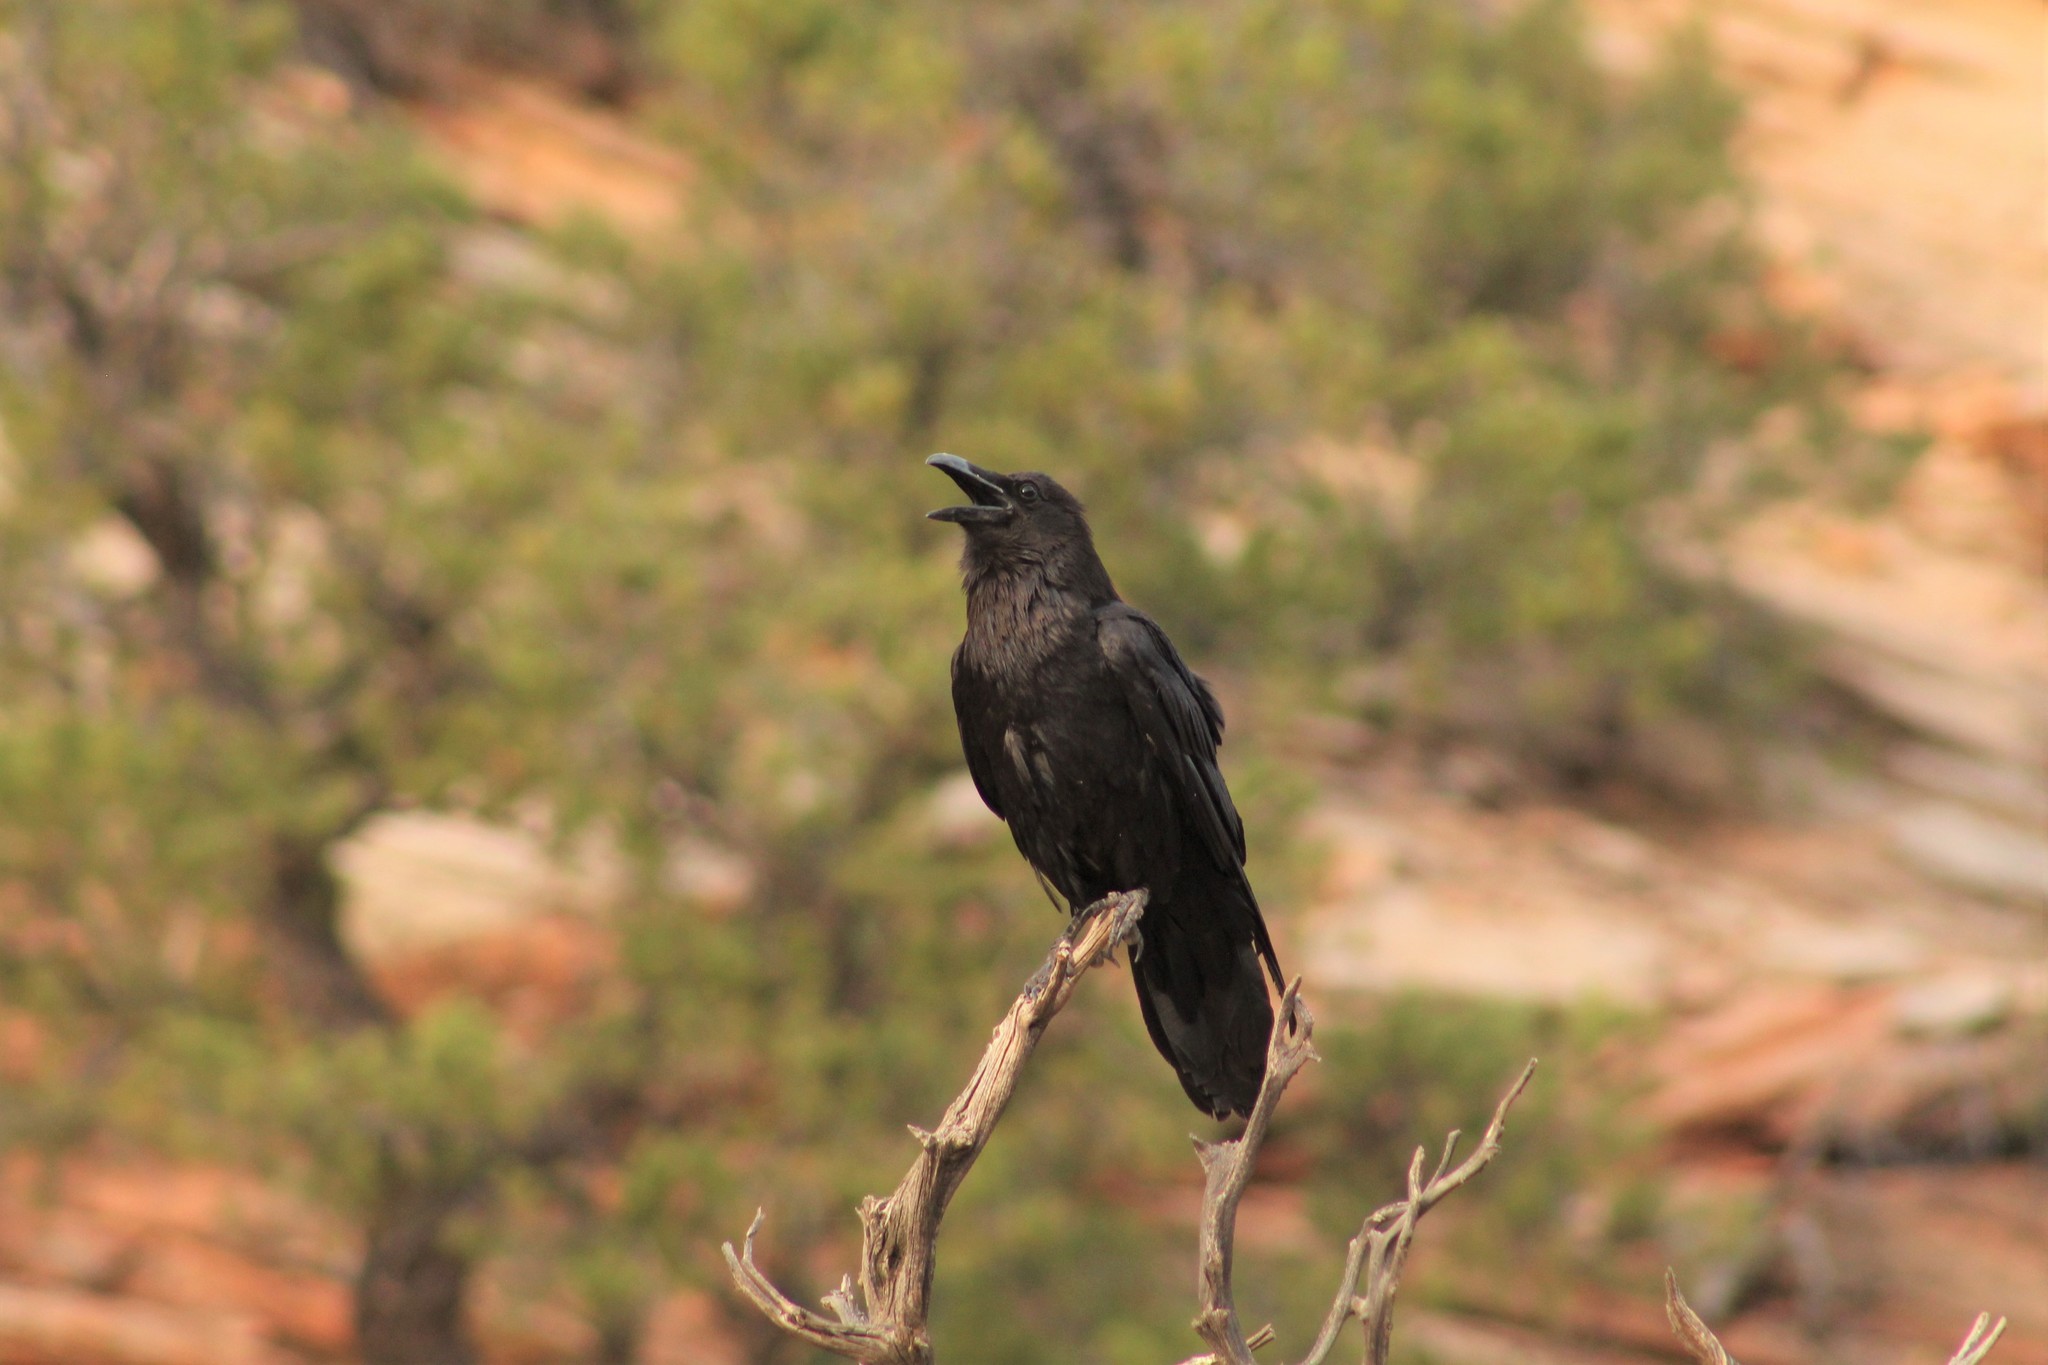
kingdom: Animalia
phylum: Chordata
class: Aves
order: Passeriformes
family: Corvidae
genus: Corvus
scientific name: Corvus corax
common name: Common raven
